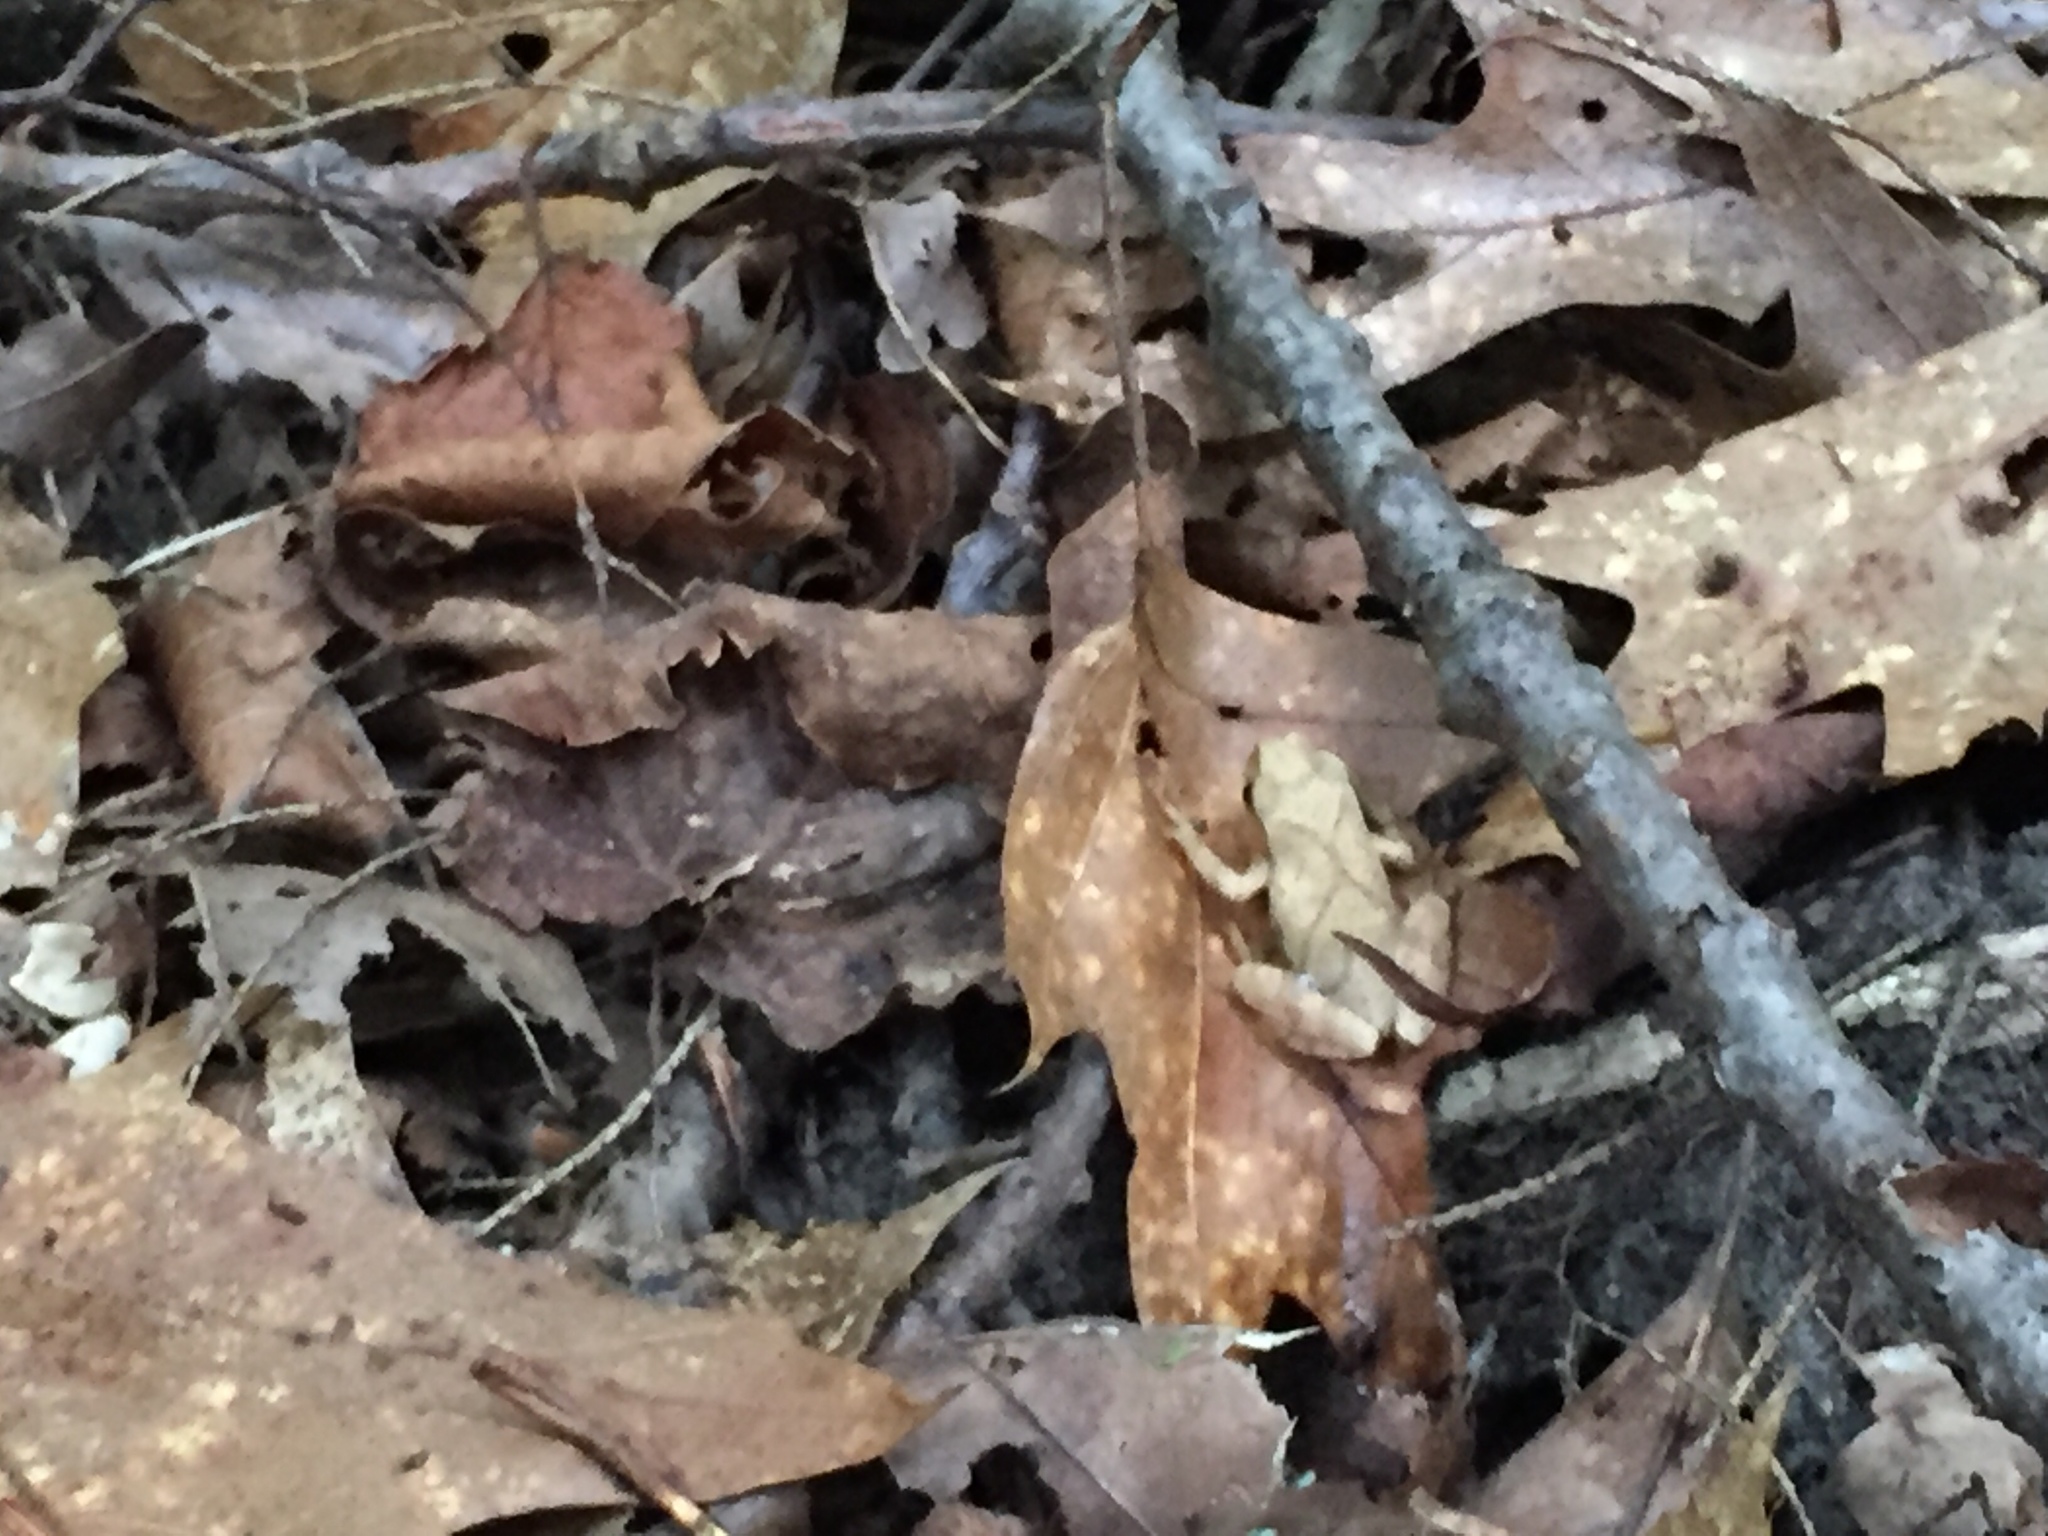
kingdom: Animalia
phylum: Chordata
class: Amphibia
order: Anura
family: Hylidae
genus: Pseudacris
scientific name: Pseudacris crucifer
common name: Spring peeper
